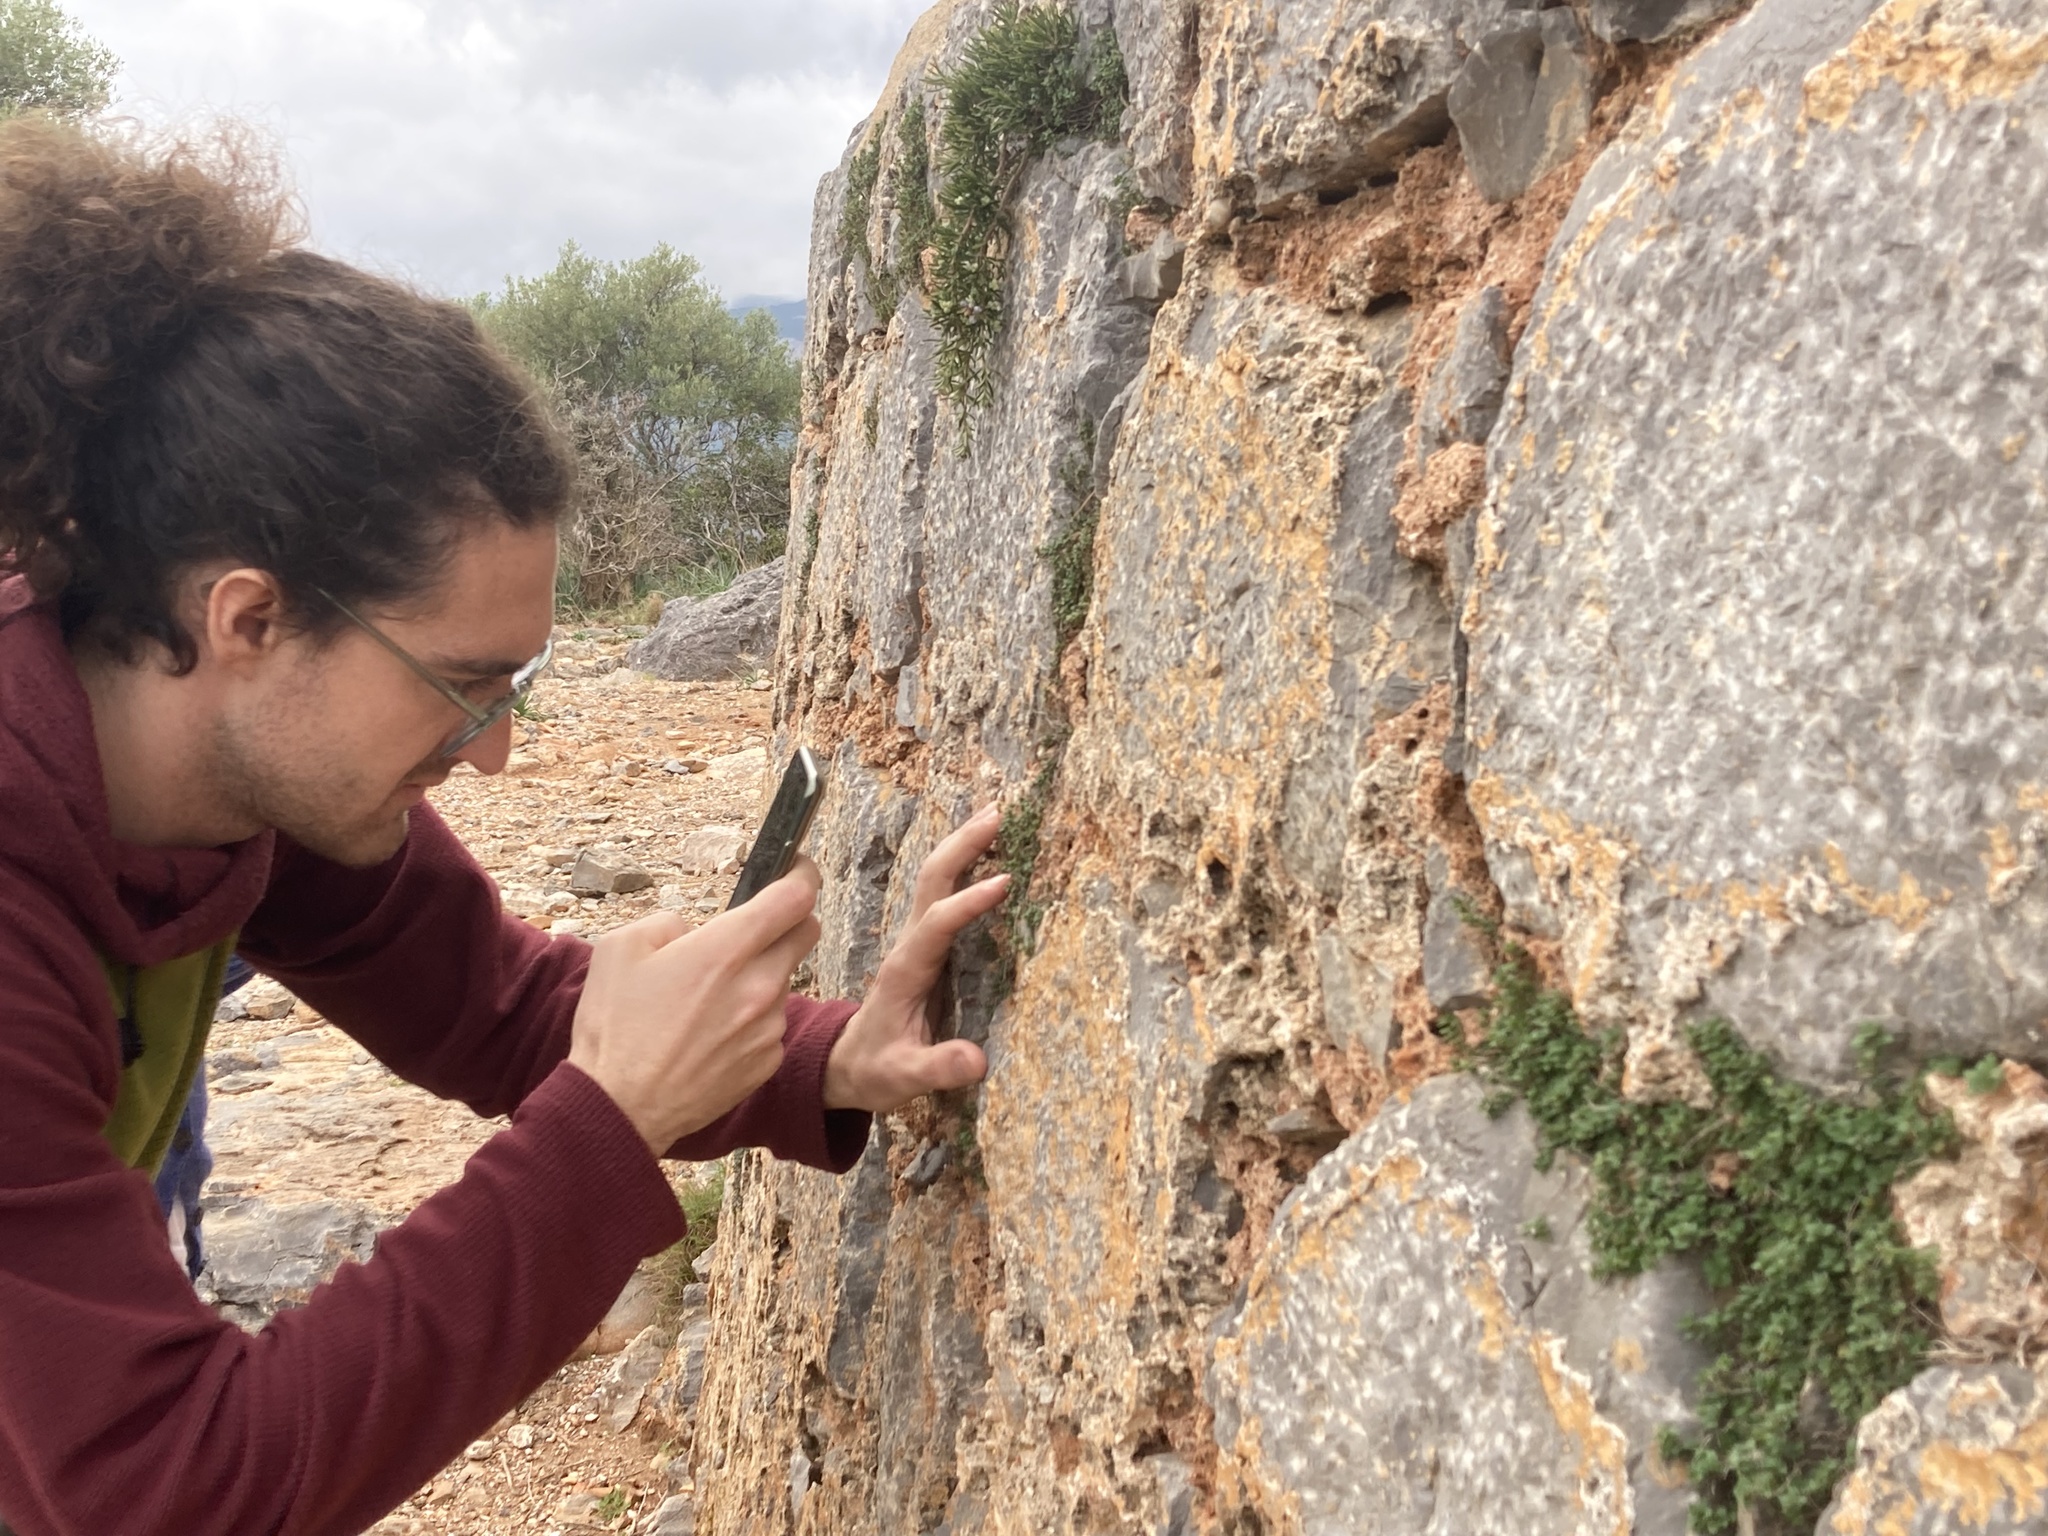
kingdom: Plantae
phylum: Tracheophyta
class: Magnoliopsida
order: Lamiales
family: Lamiaceae
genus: Micromeria
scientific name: Micromeria microphylla
